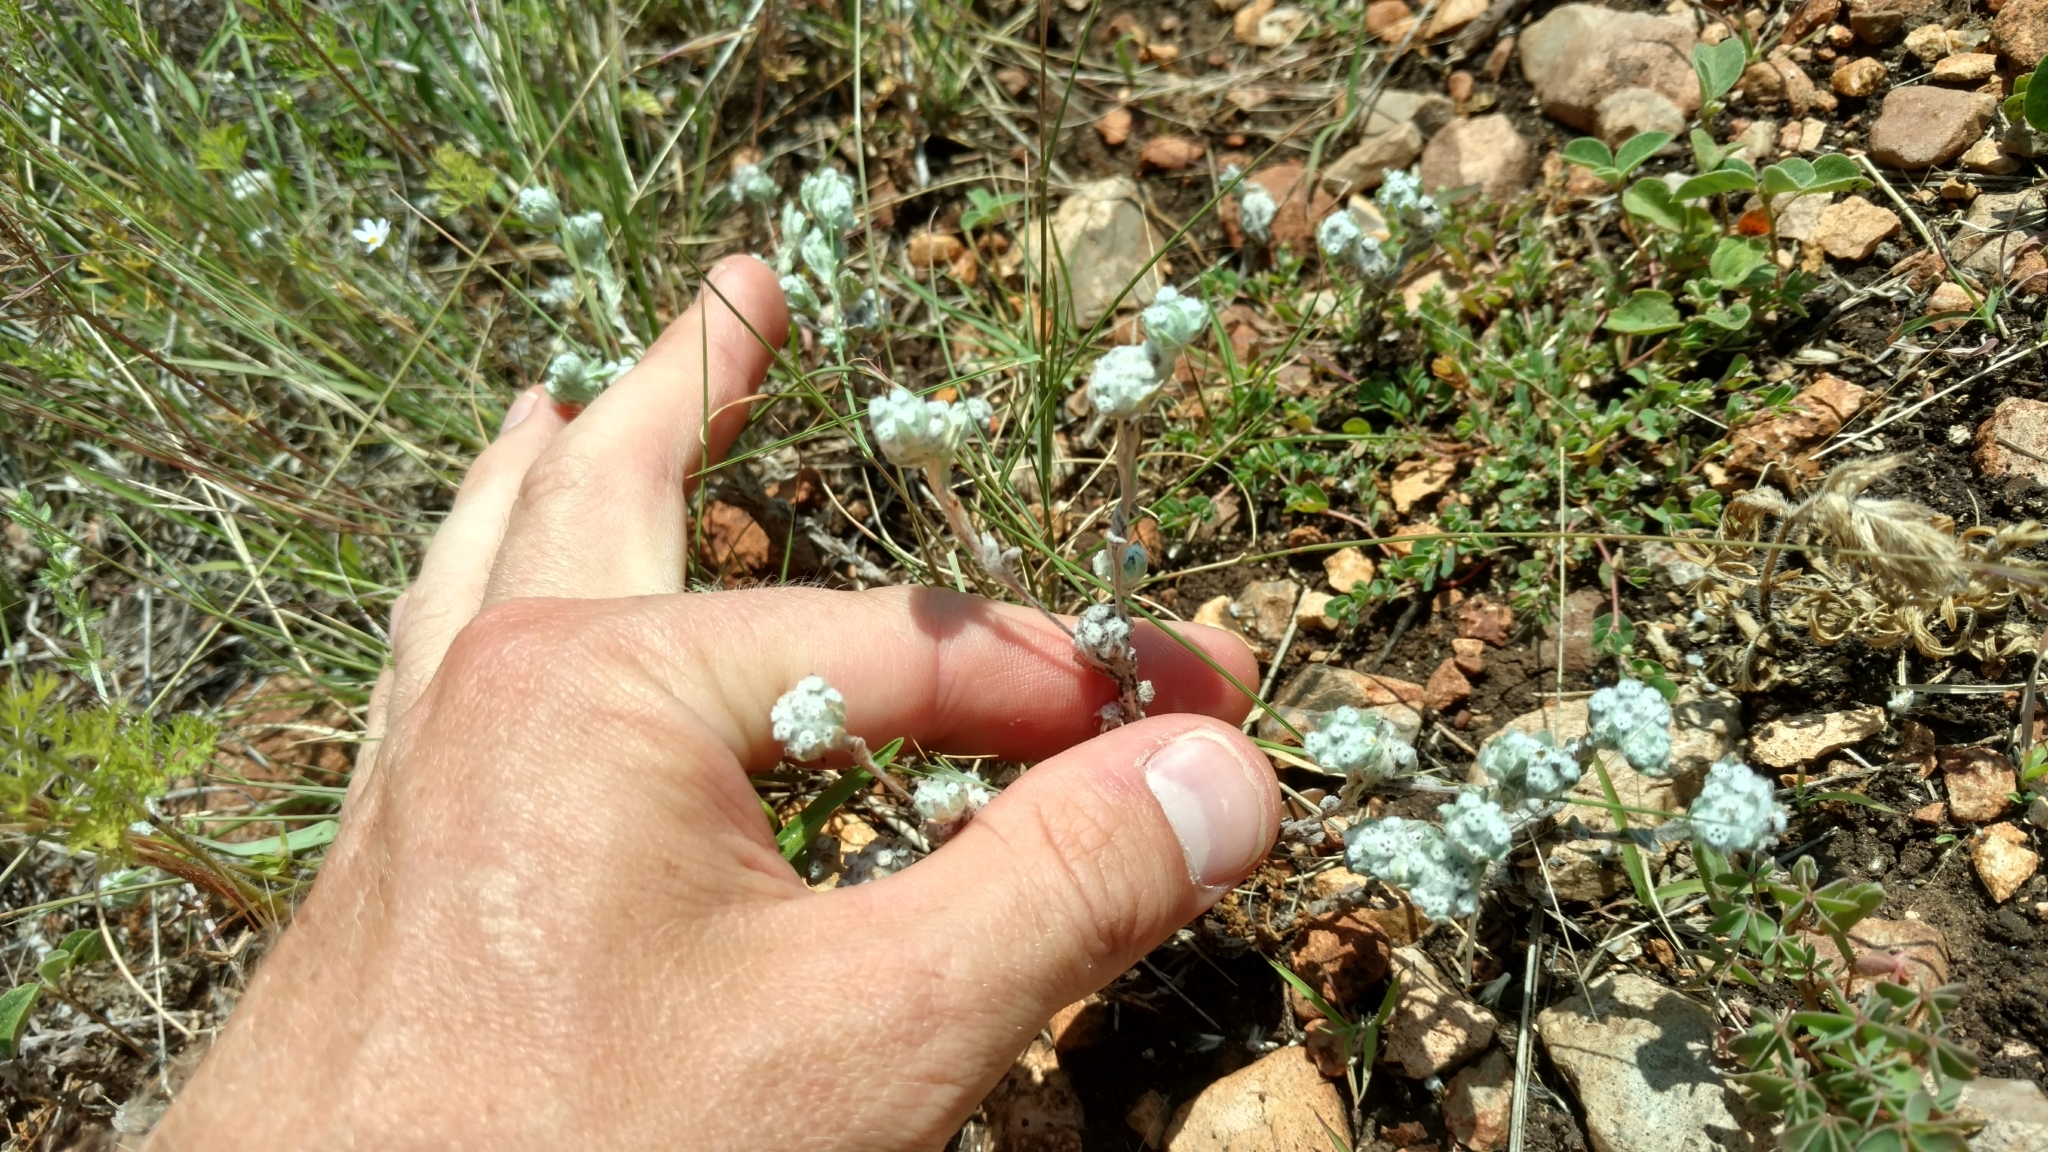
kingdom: Plantae
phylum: Tracheophyta
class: Magnoliopsida
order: Asterales
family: Asteraceae
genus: Diaperia
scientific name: Diaperia verna
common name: Many-stem rabbit-tobacco
